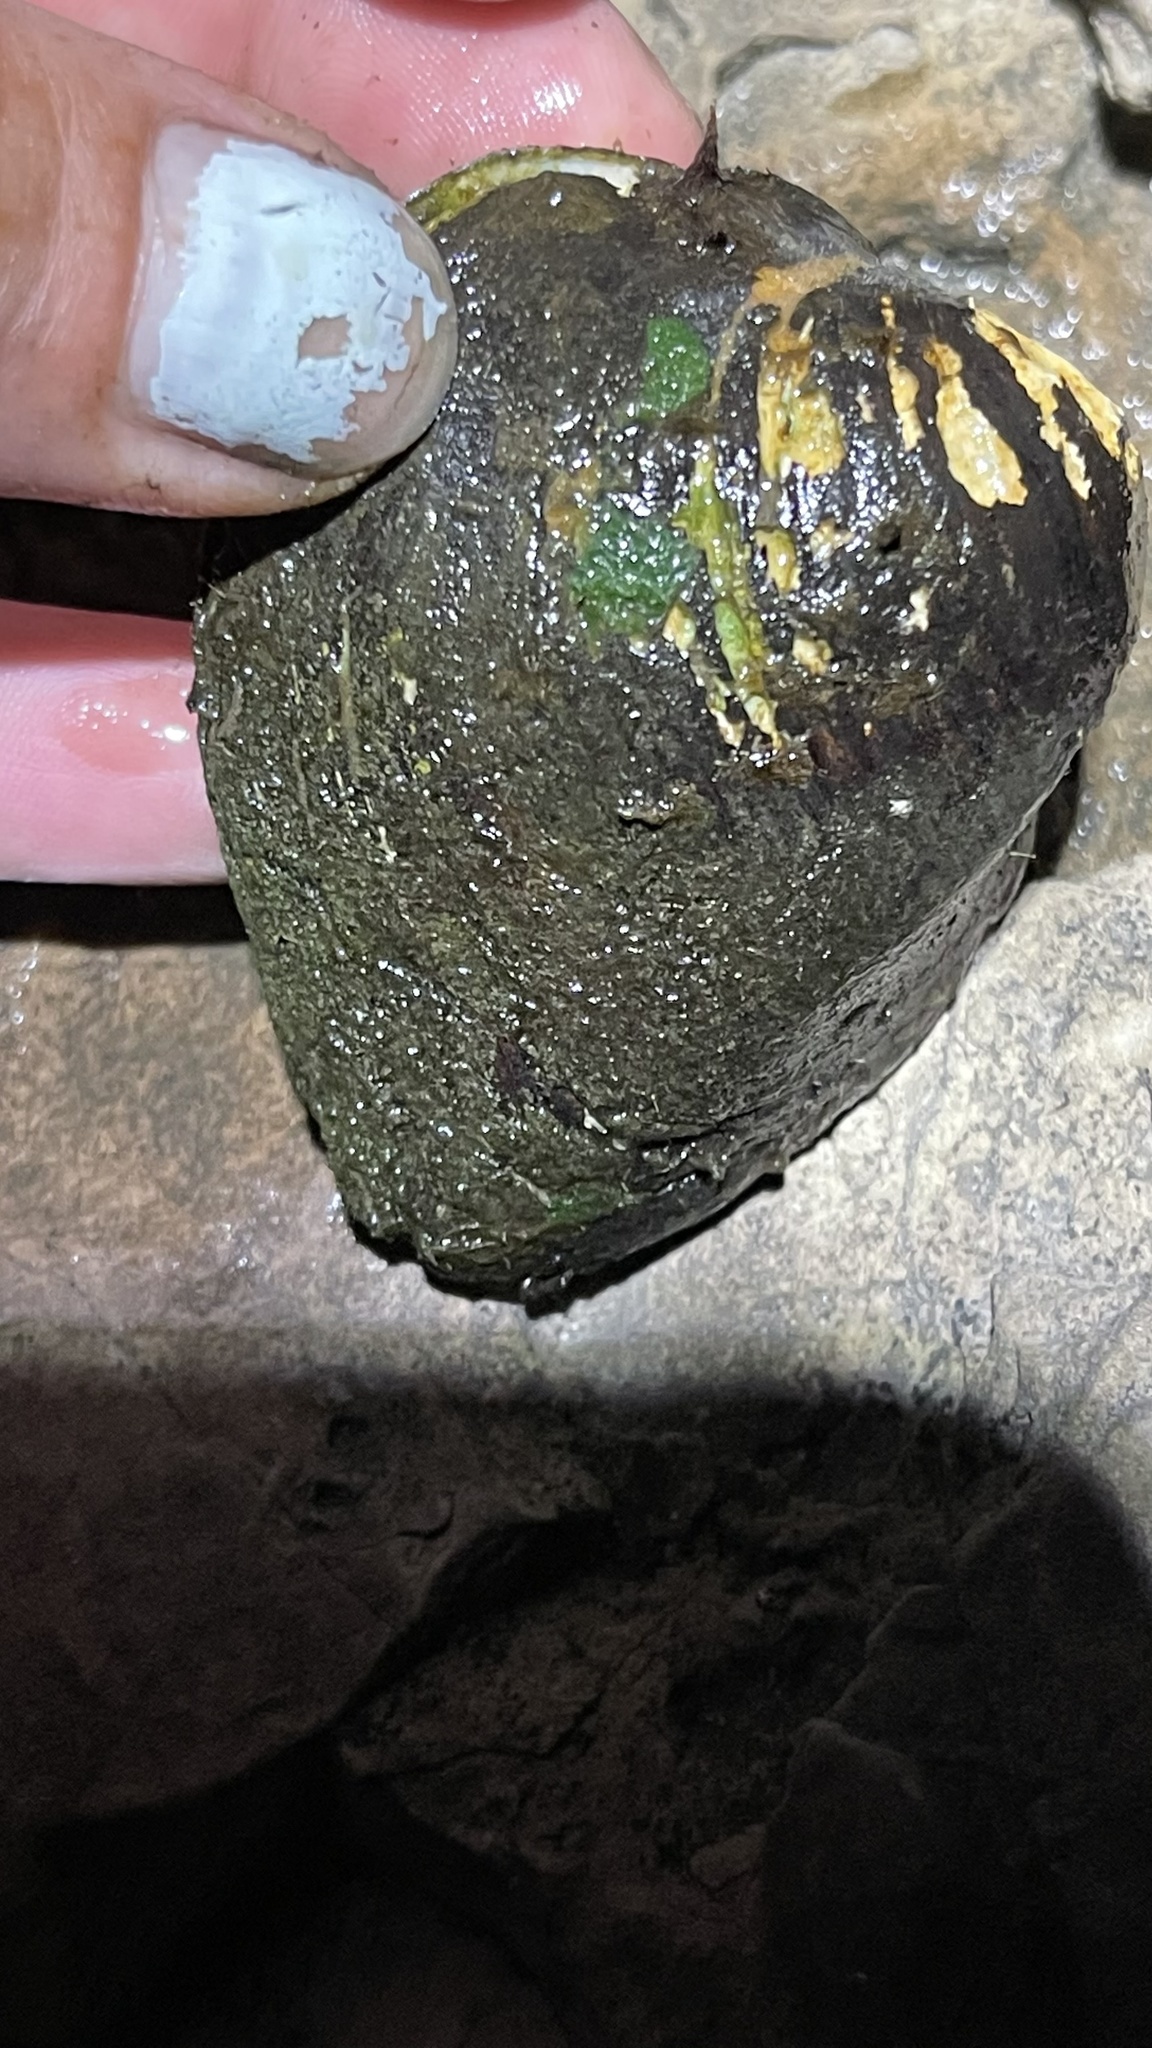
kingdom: Animalia
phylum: Mollusca
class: Bivalvia
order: Unionida
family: Unionidae
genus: Fusconaia
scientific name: Fusconaia flava
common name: Wabash pigtoe
